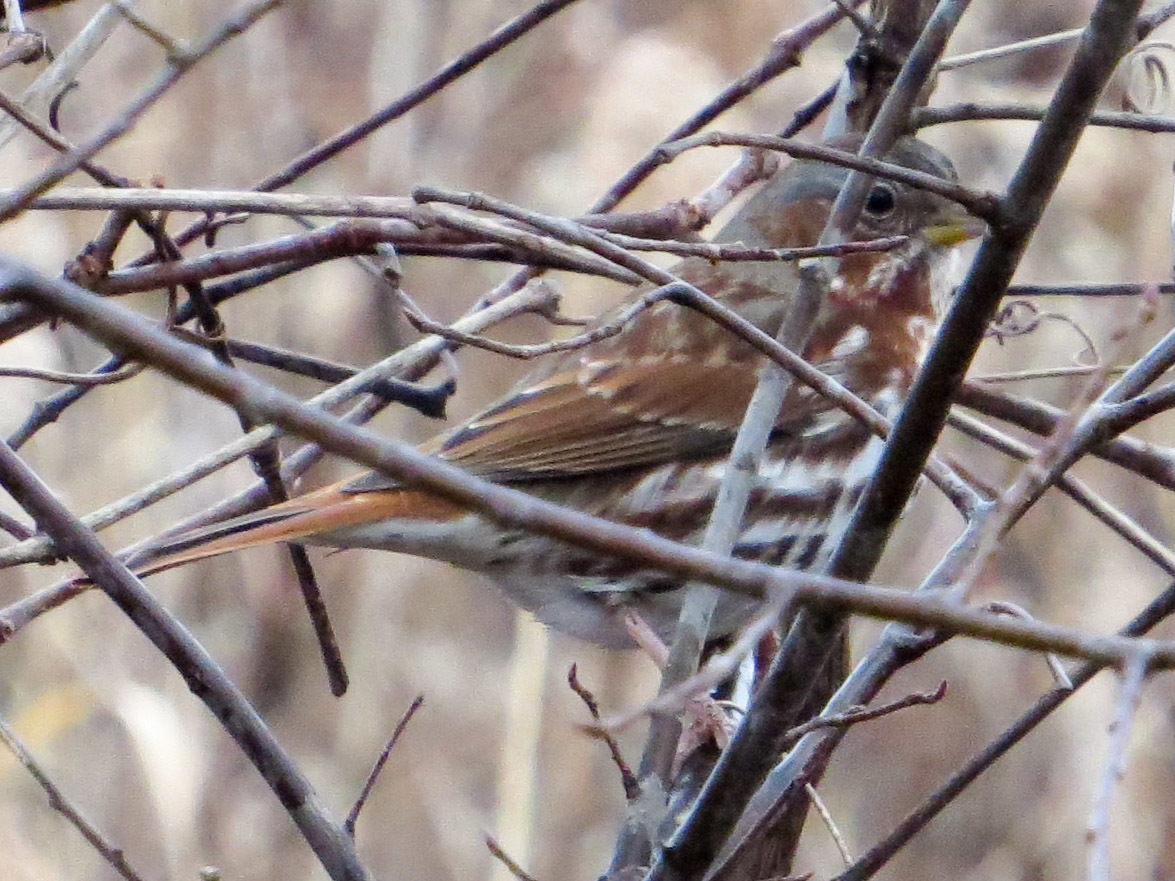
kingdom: Animalia
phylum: Chordata
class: Aves
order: Passeriformes
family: Passerellidae
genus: Passerella
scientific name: Passerella iliaca
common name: Fox sparrow
